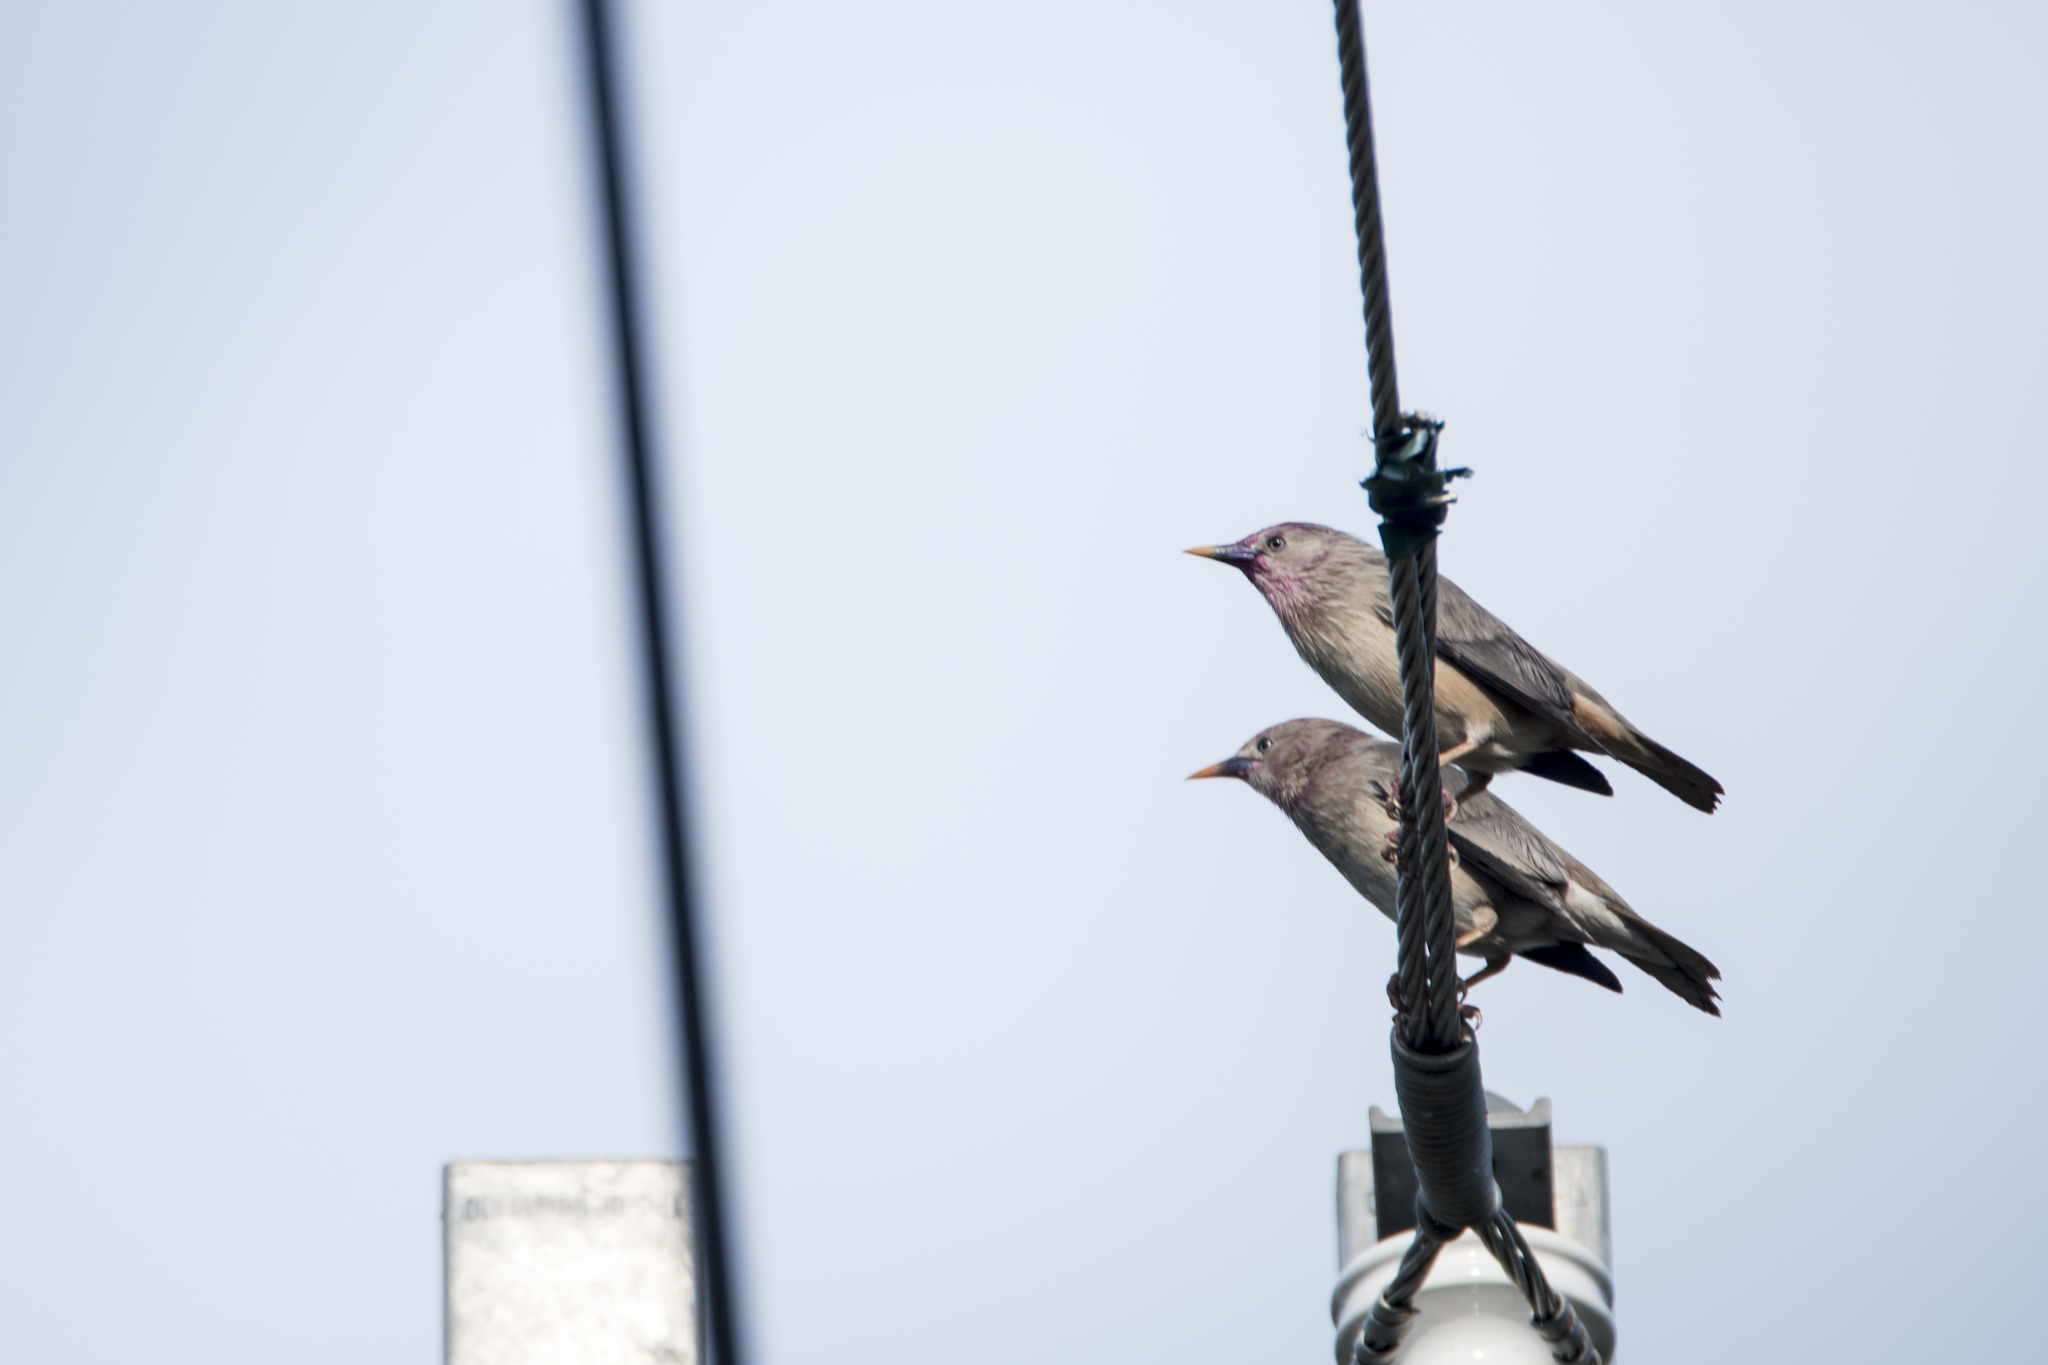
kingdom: Animalia
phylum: Chordata
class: Aves
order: Passeriformes
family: Sturnidae
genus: Sturnia
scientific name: Sturnia malabarica
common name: Chestnut-tailed starling
